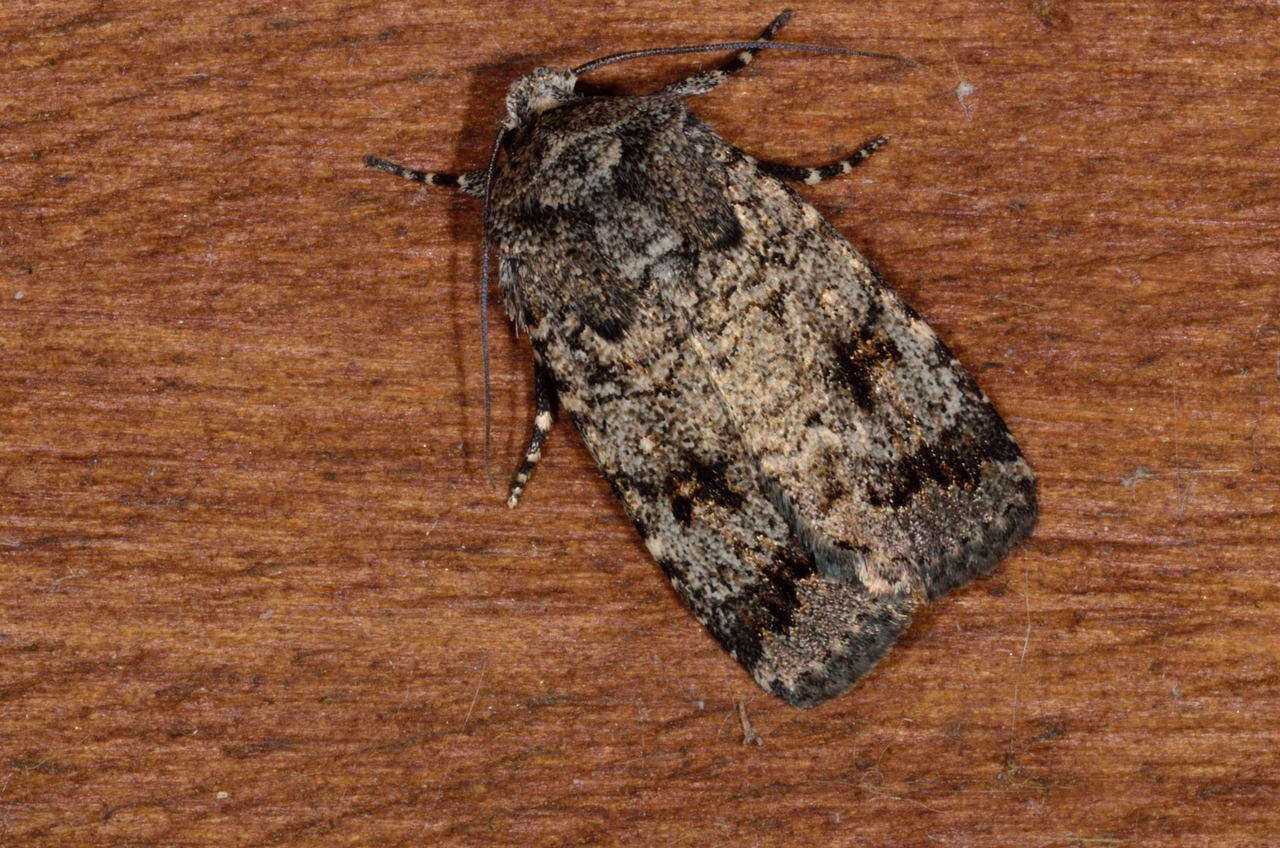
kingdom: Animalia
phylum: Arthropoda
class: Insecta
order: Lepidoptera
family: Noctuidae
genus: Proteuxoa
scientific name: Proteuxoa capularis
